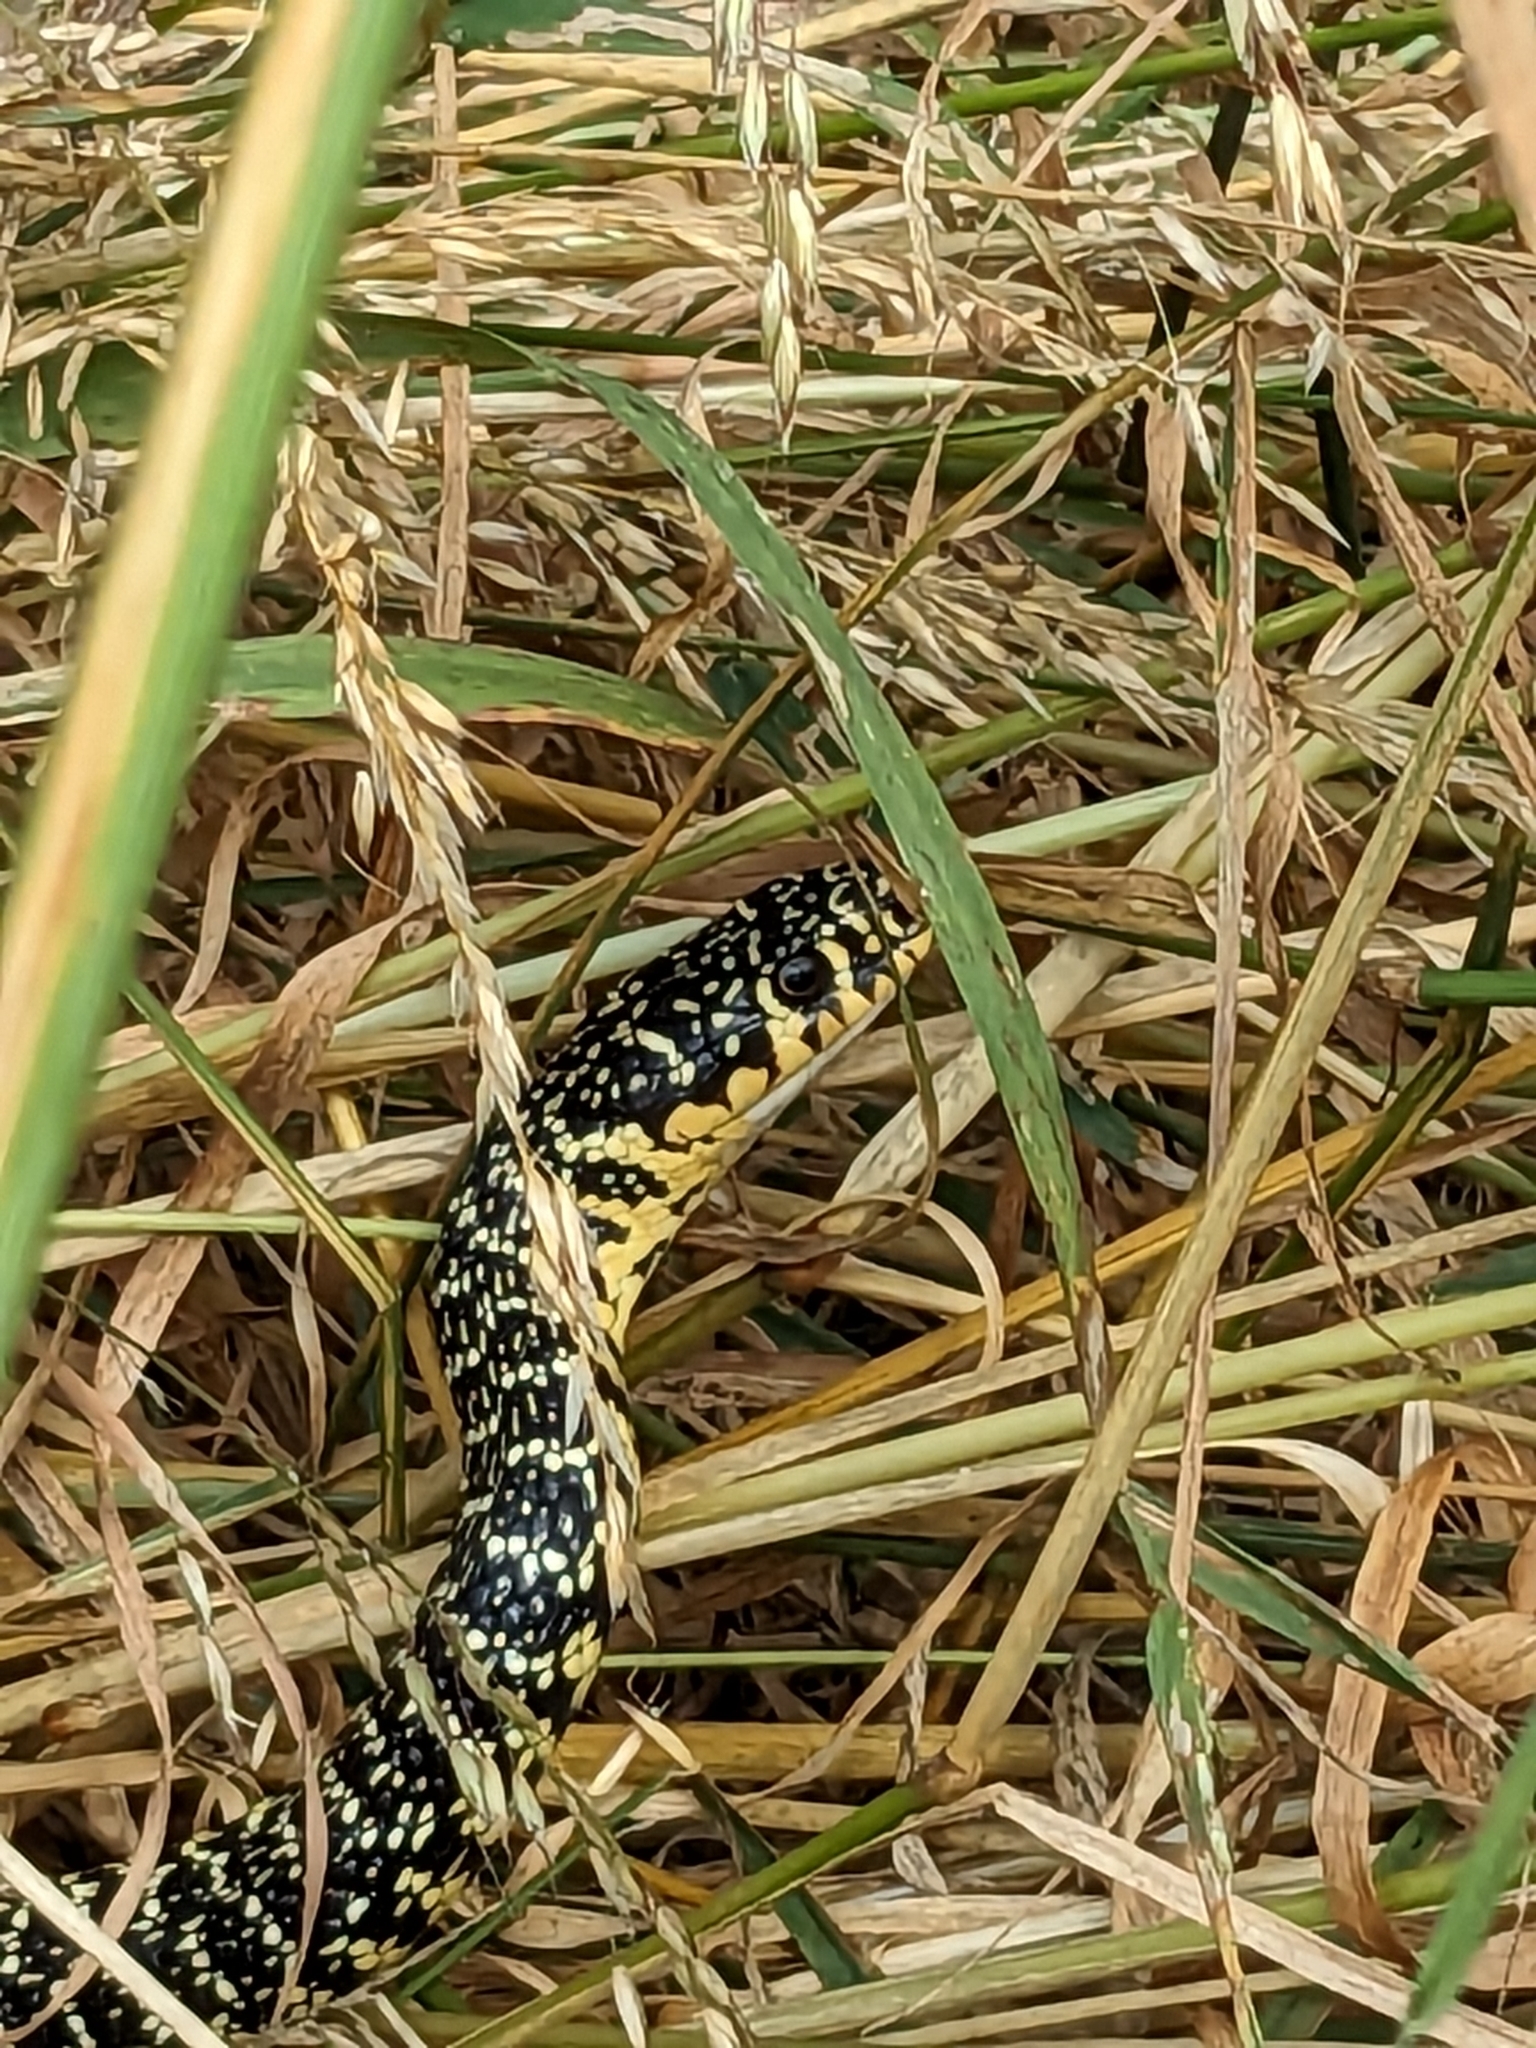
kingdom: Animalia
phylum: Chordata
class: Squamata
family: Colubridae
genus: Hierophis
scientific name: Hierophis viridiflavus
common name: Green whip snake
